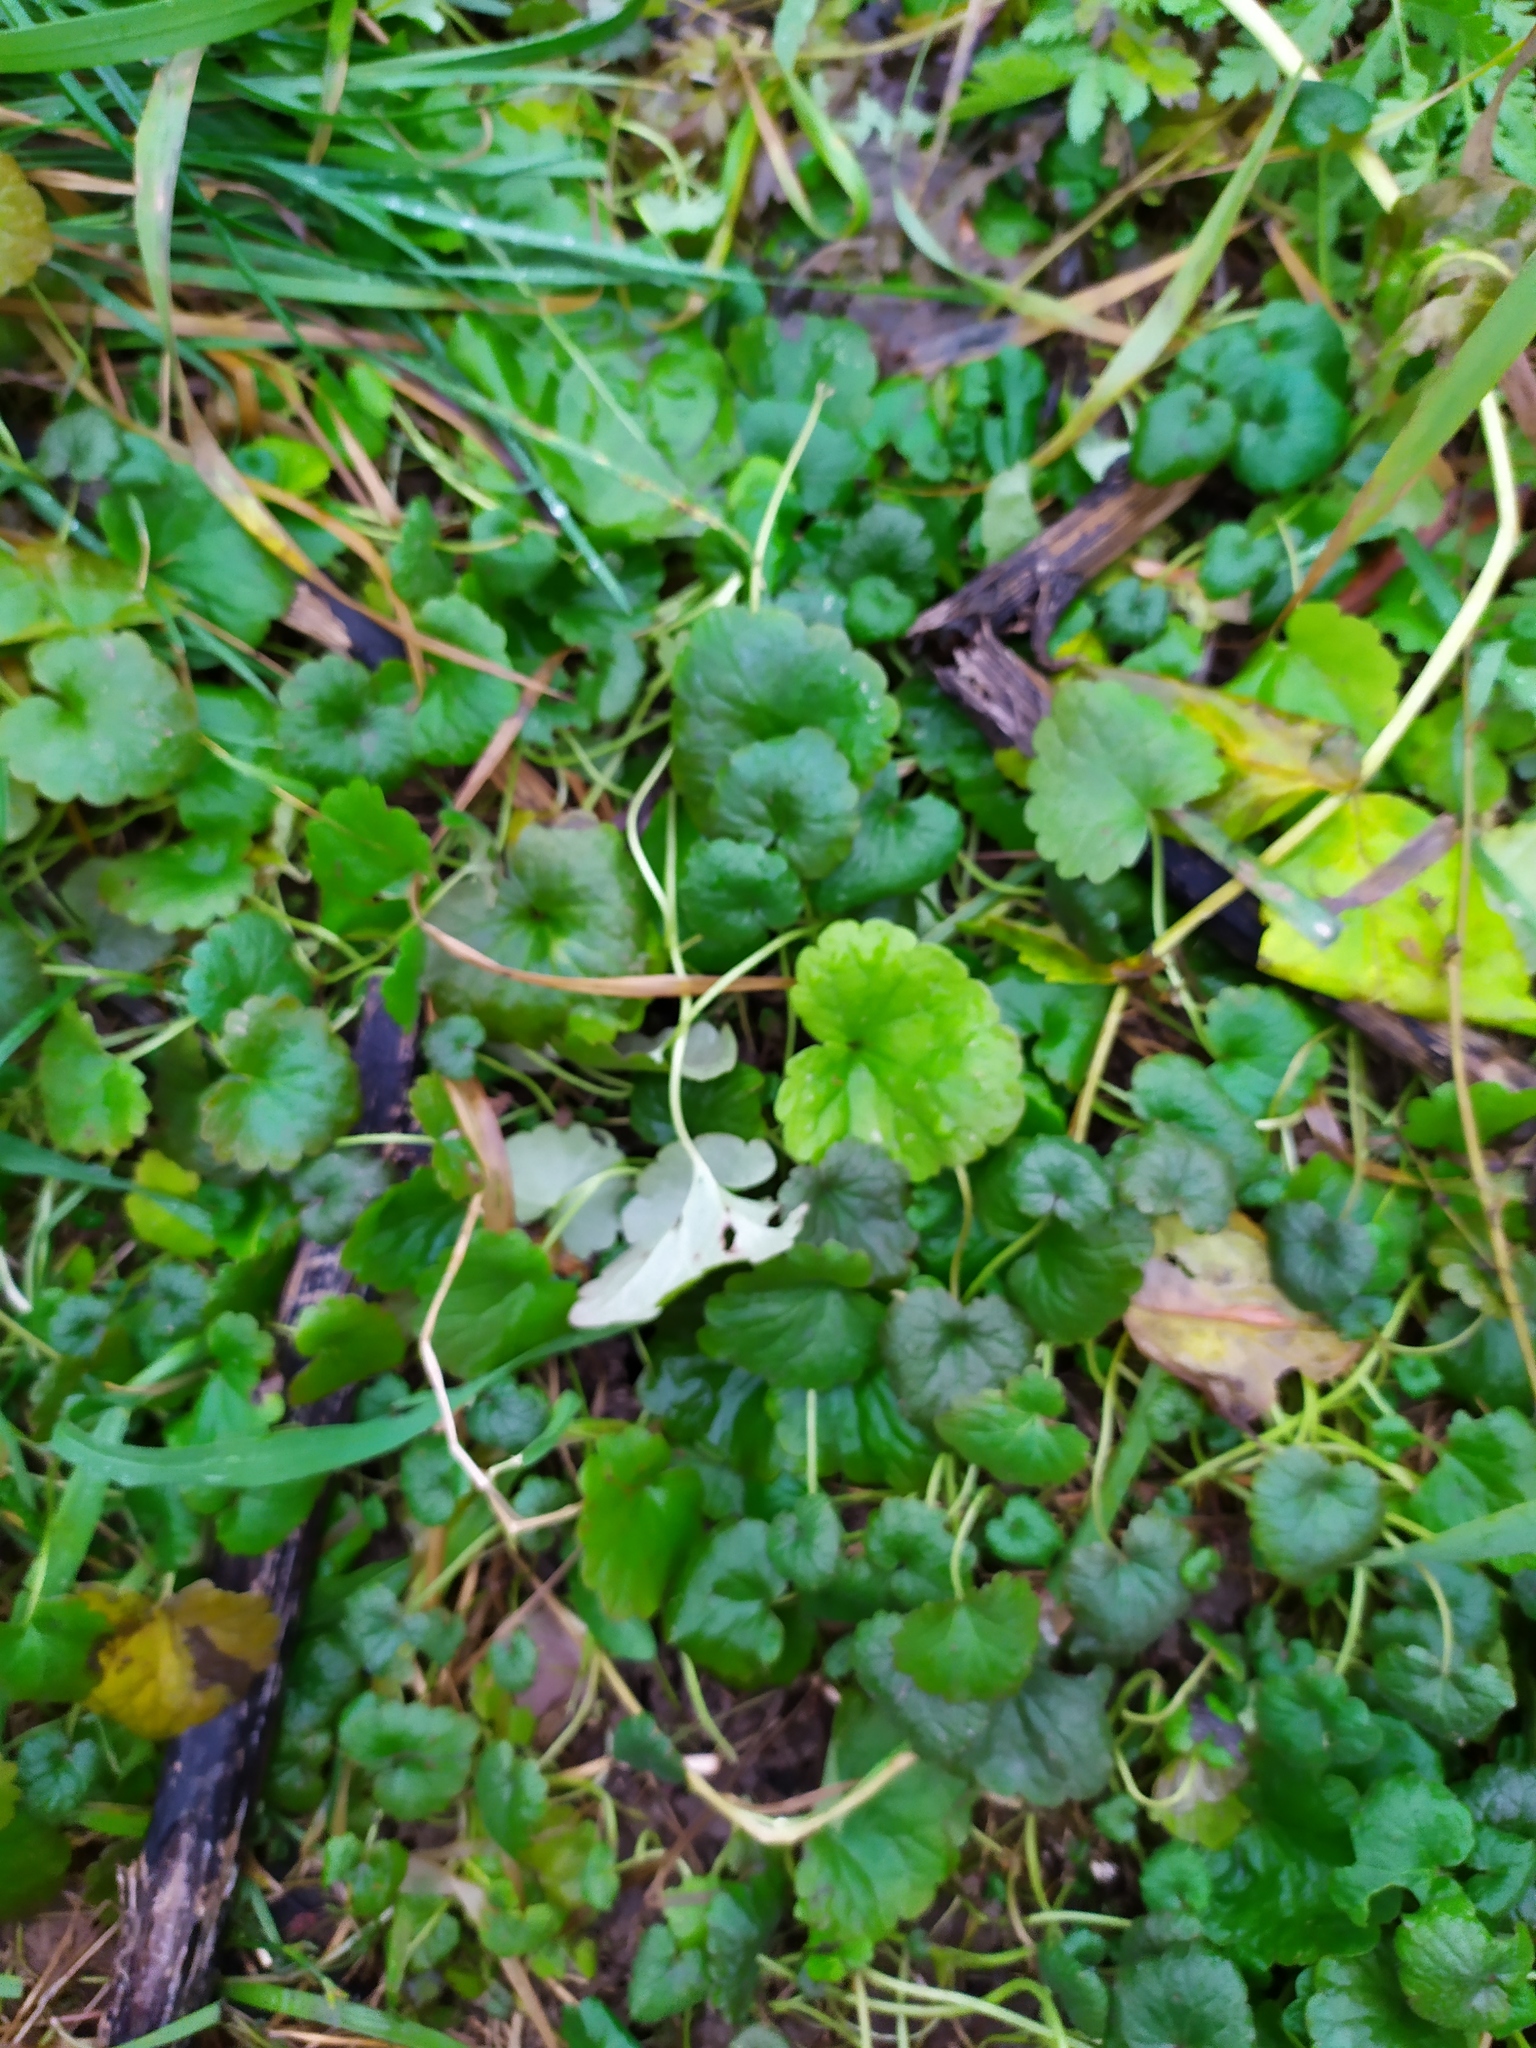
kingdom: Plantae
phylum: Tracheophyta
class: Magnoliopsida
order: Lamiales
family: Lamiaceae
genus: Glechoma
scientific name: Glechoma hederacea
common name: Ground ivy
